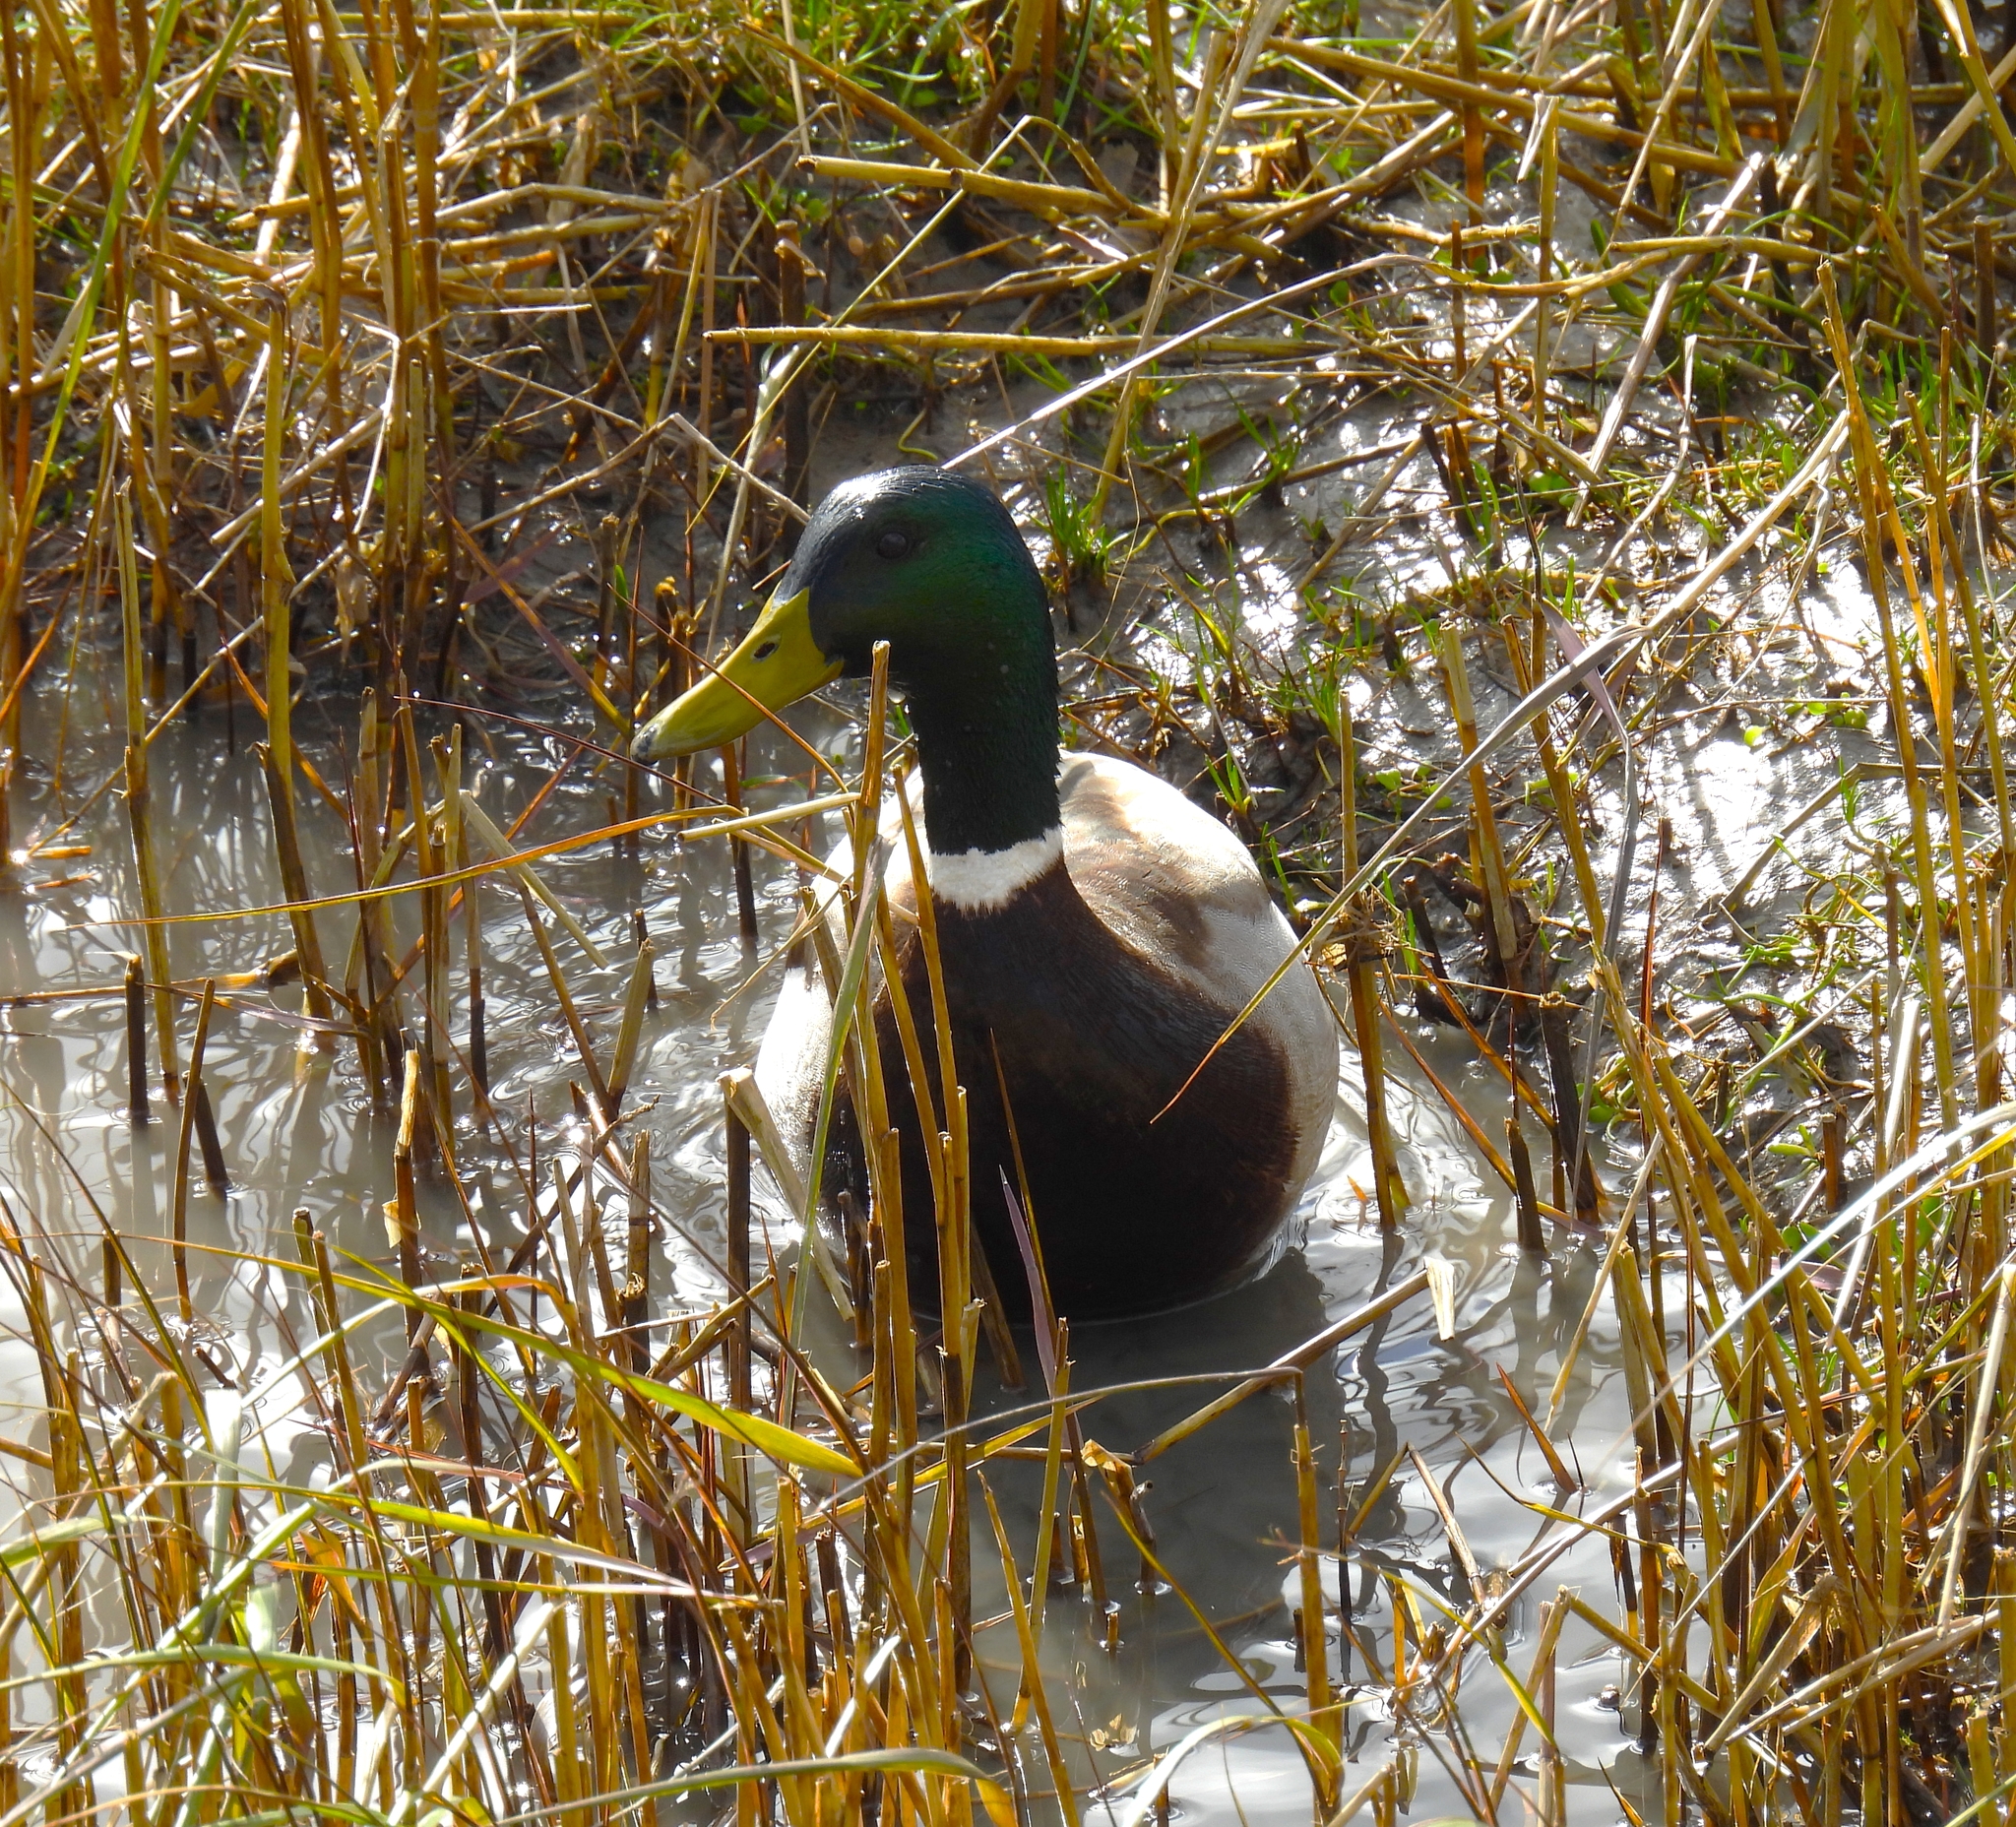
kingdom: Animalia
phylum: Chordata
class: Aves
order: Anseriformes
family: Anatidae
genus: Anas
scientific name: Anas platyrhynchos
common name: Mallard
